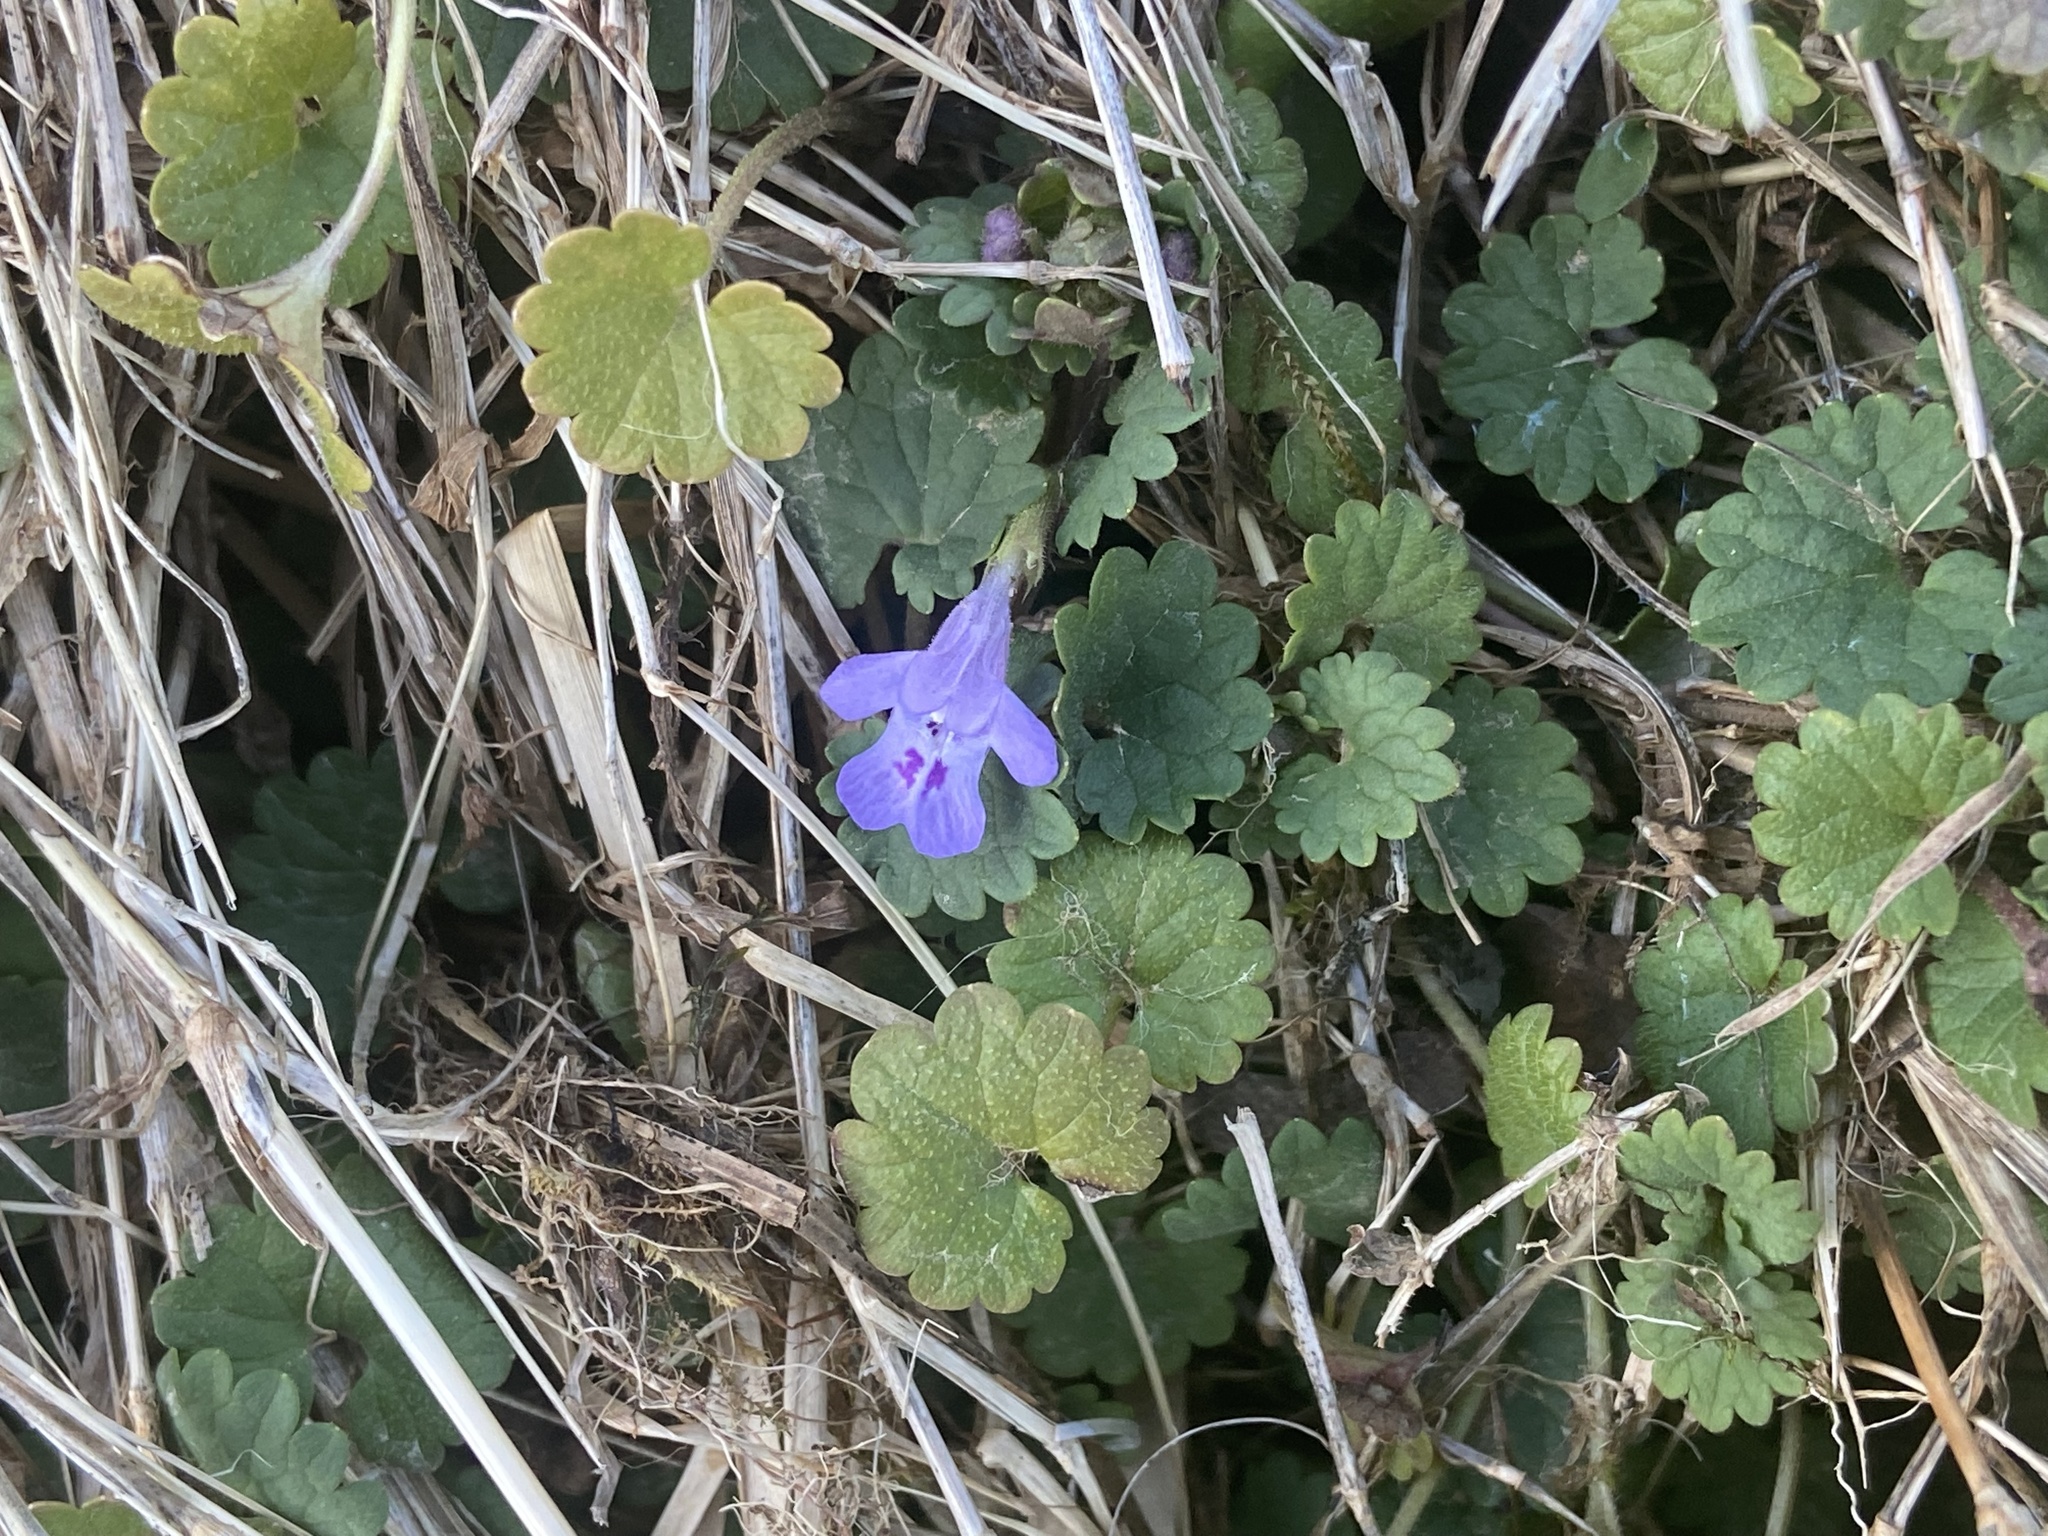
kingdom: Plantae
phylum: Tracheophyta
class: Magnoliopsida
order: Lamiales
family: Lamiaceae
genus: Glechoma
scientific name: Glechoma hederacea
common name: Ground ivy
